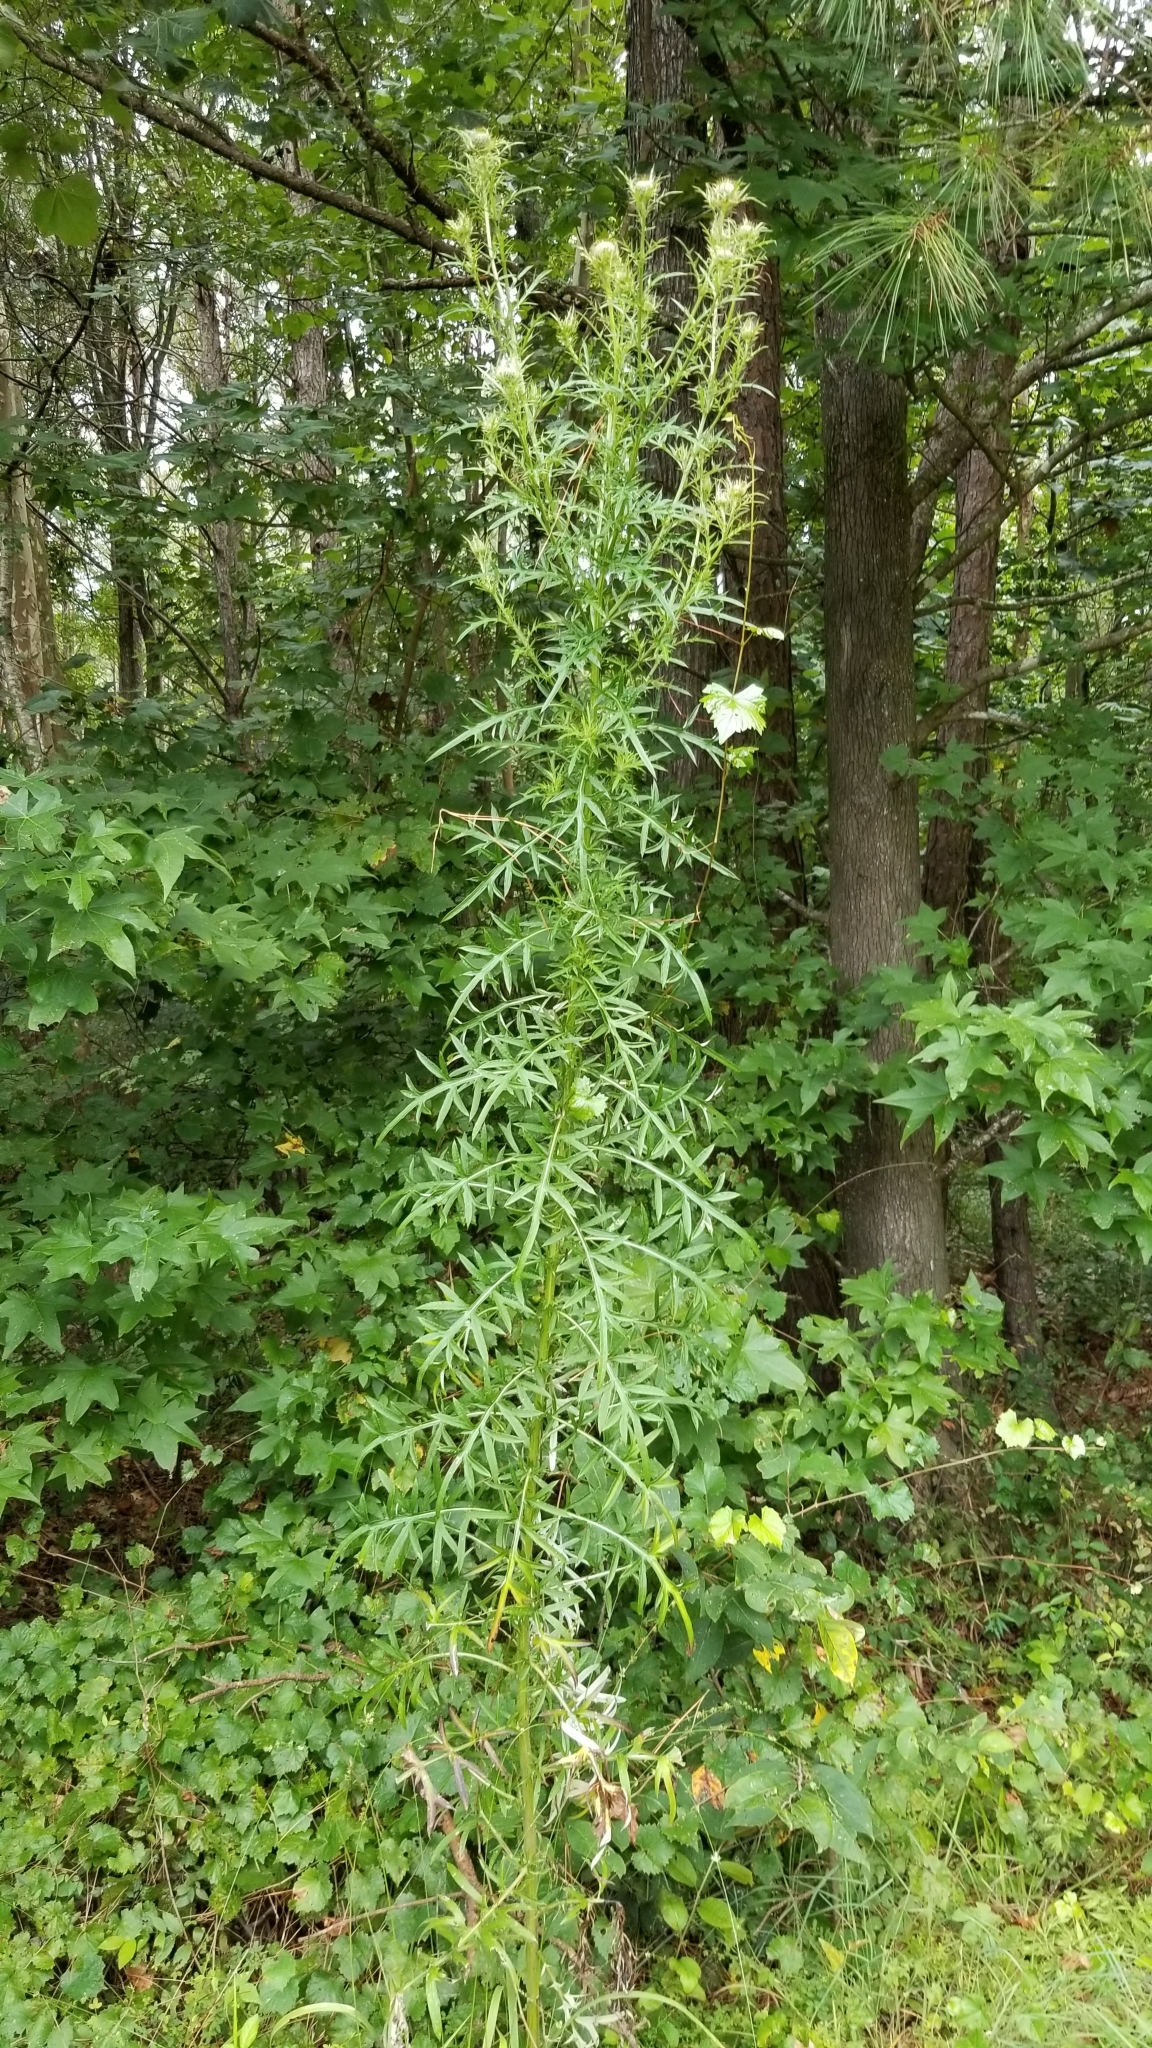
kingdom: Plantae
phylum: Tracheophyta
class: Magnoliopsida
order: Asterales
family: Asteraceae
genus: Cirsium
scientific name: Cirsium discolor
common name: Field thistle
